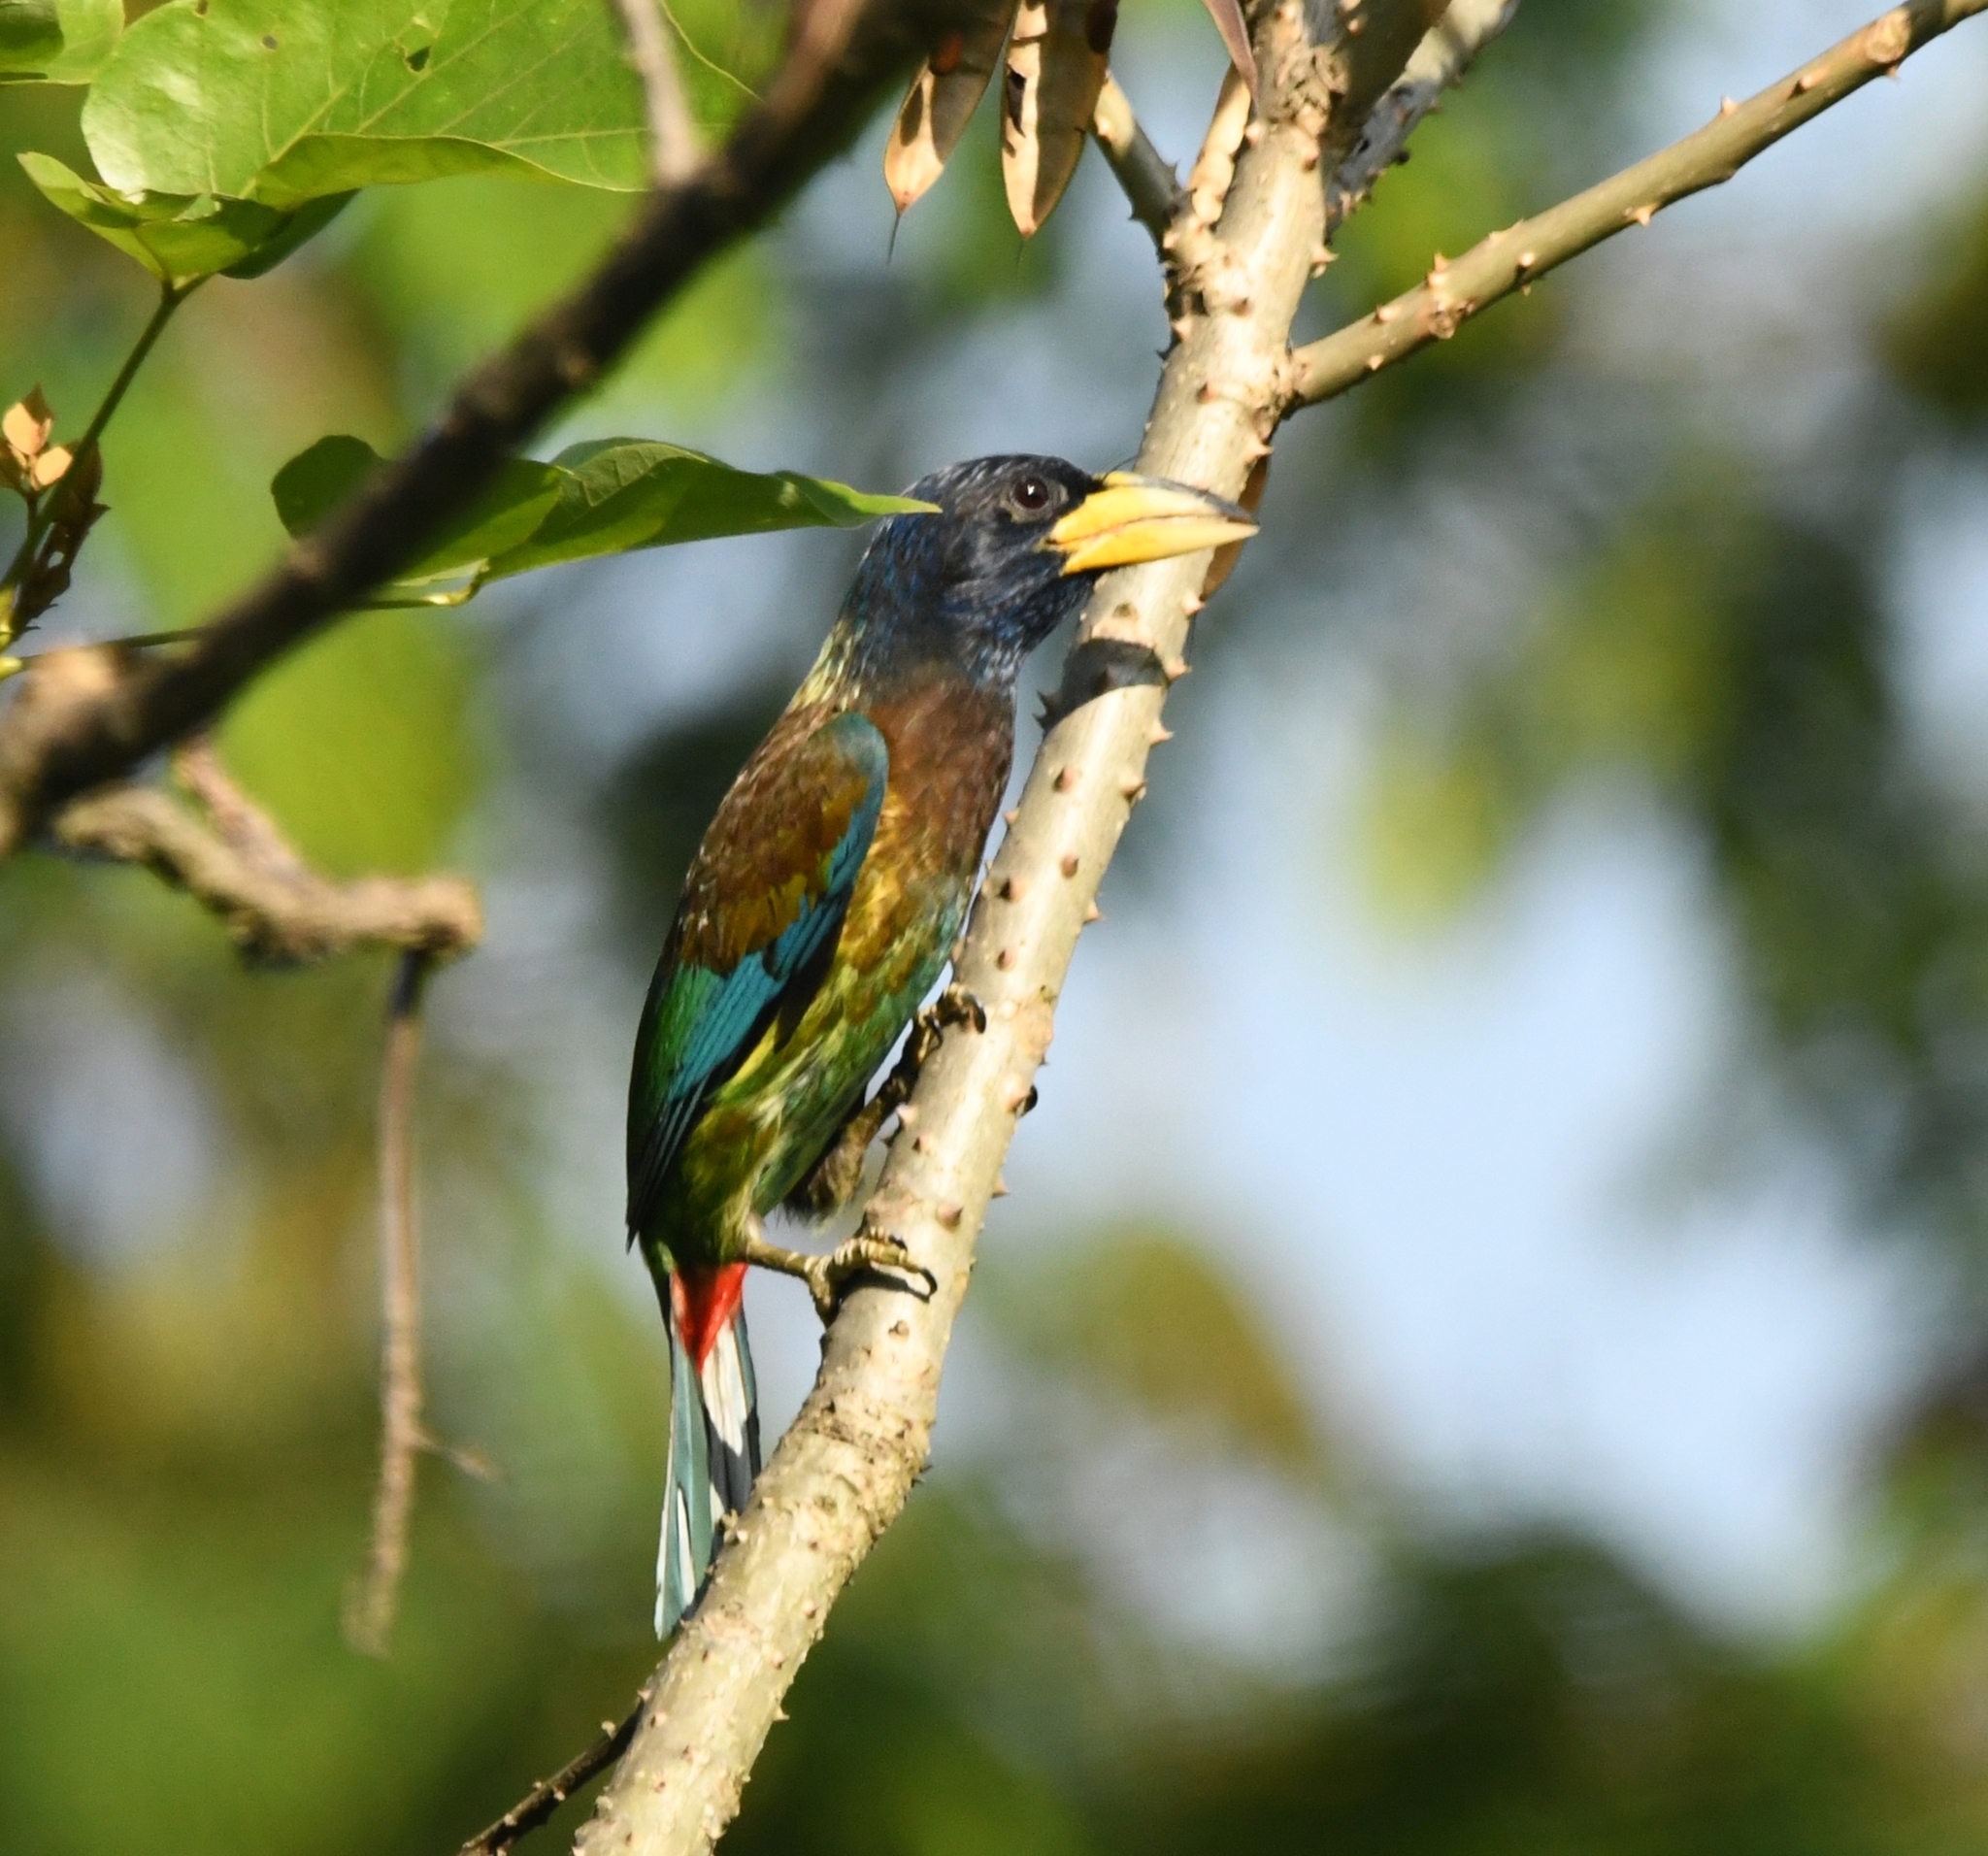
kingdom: Animalia
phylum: Chordata
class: Aves
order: Piciformes
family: Megalaimidae
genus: Psilopogon
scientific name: Psilopogon virens
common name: Great barbet
